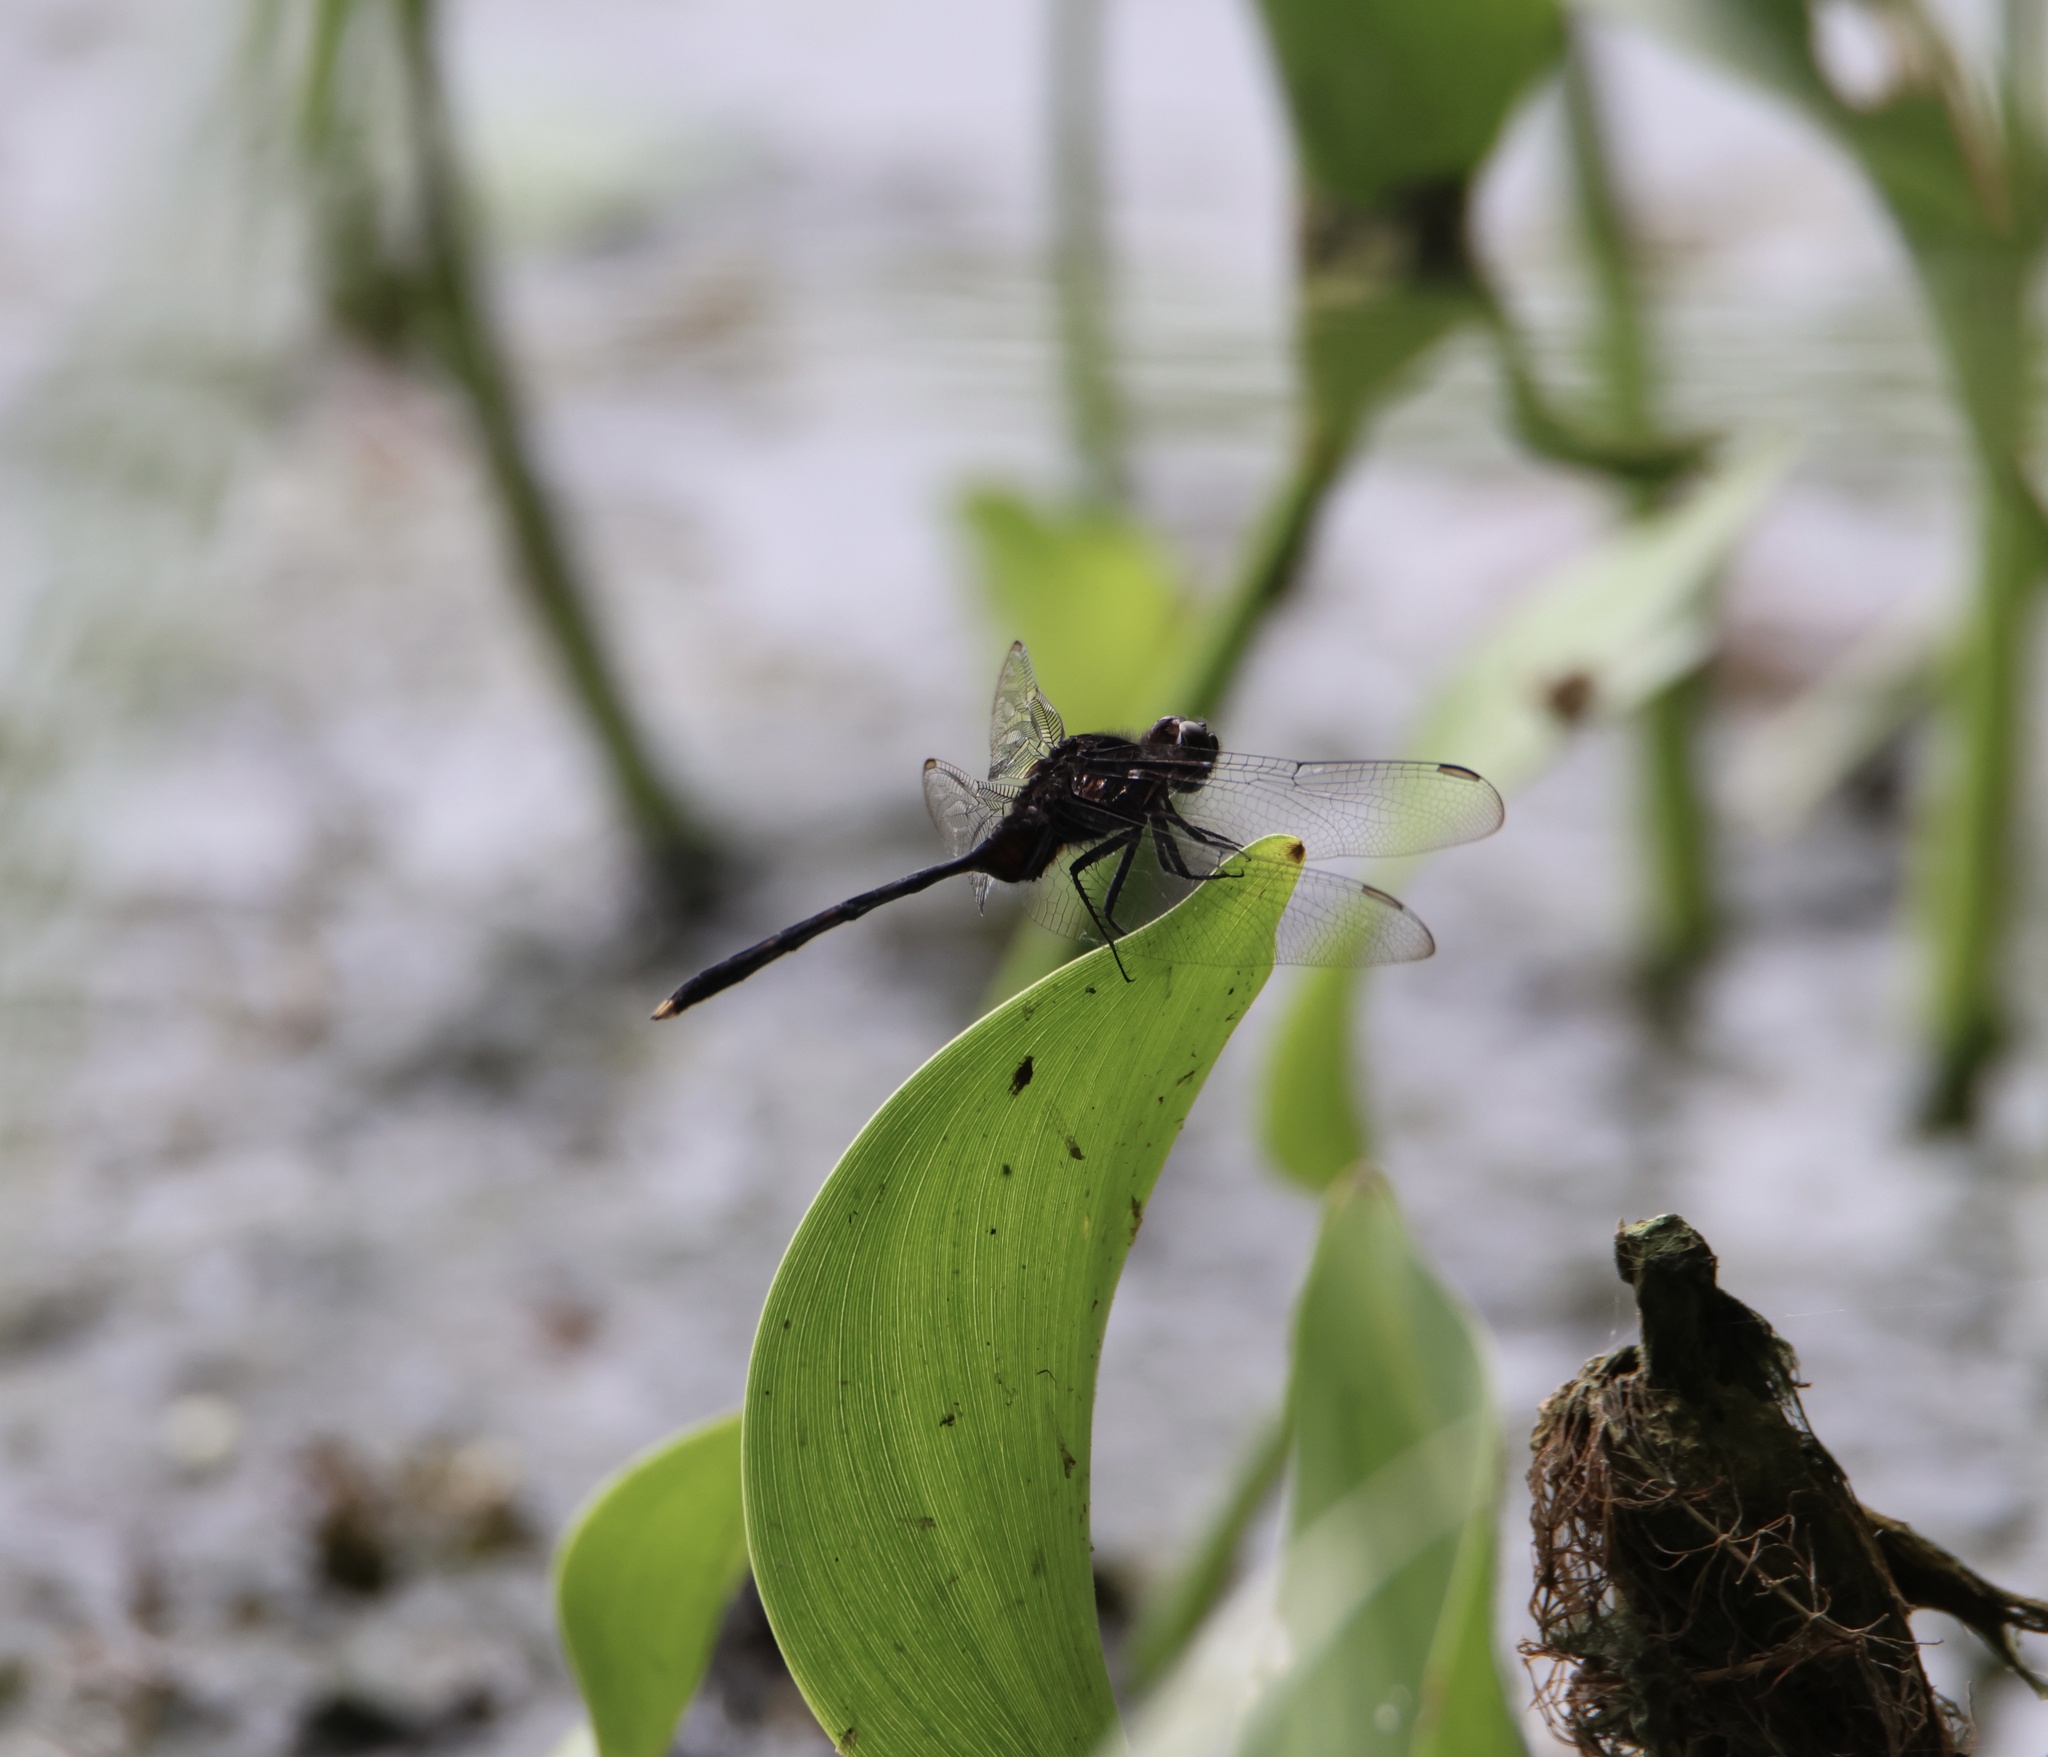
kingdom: Animalia
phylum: Arthropoda
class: Insecta
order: Odonata
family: Libellulidae
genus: Erythemis
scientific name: Erythemis plebeja
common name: Pin-tailed pondhawk
